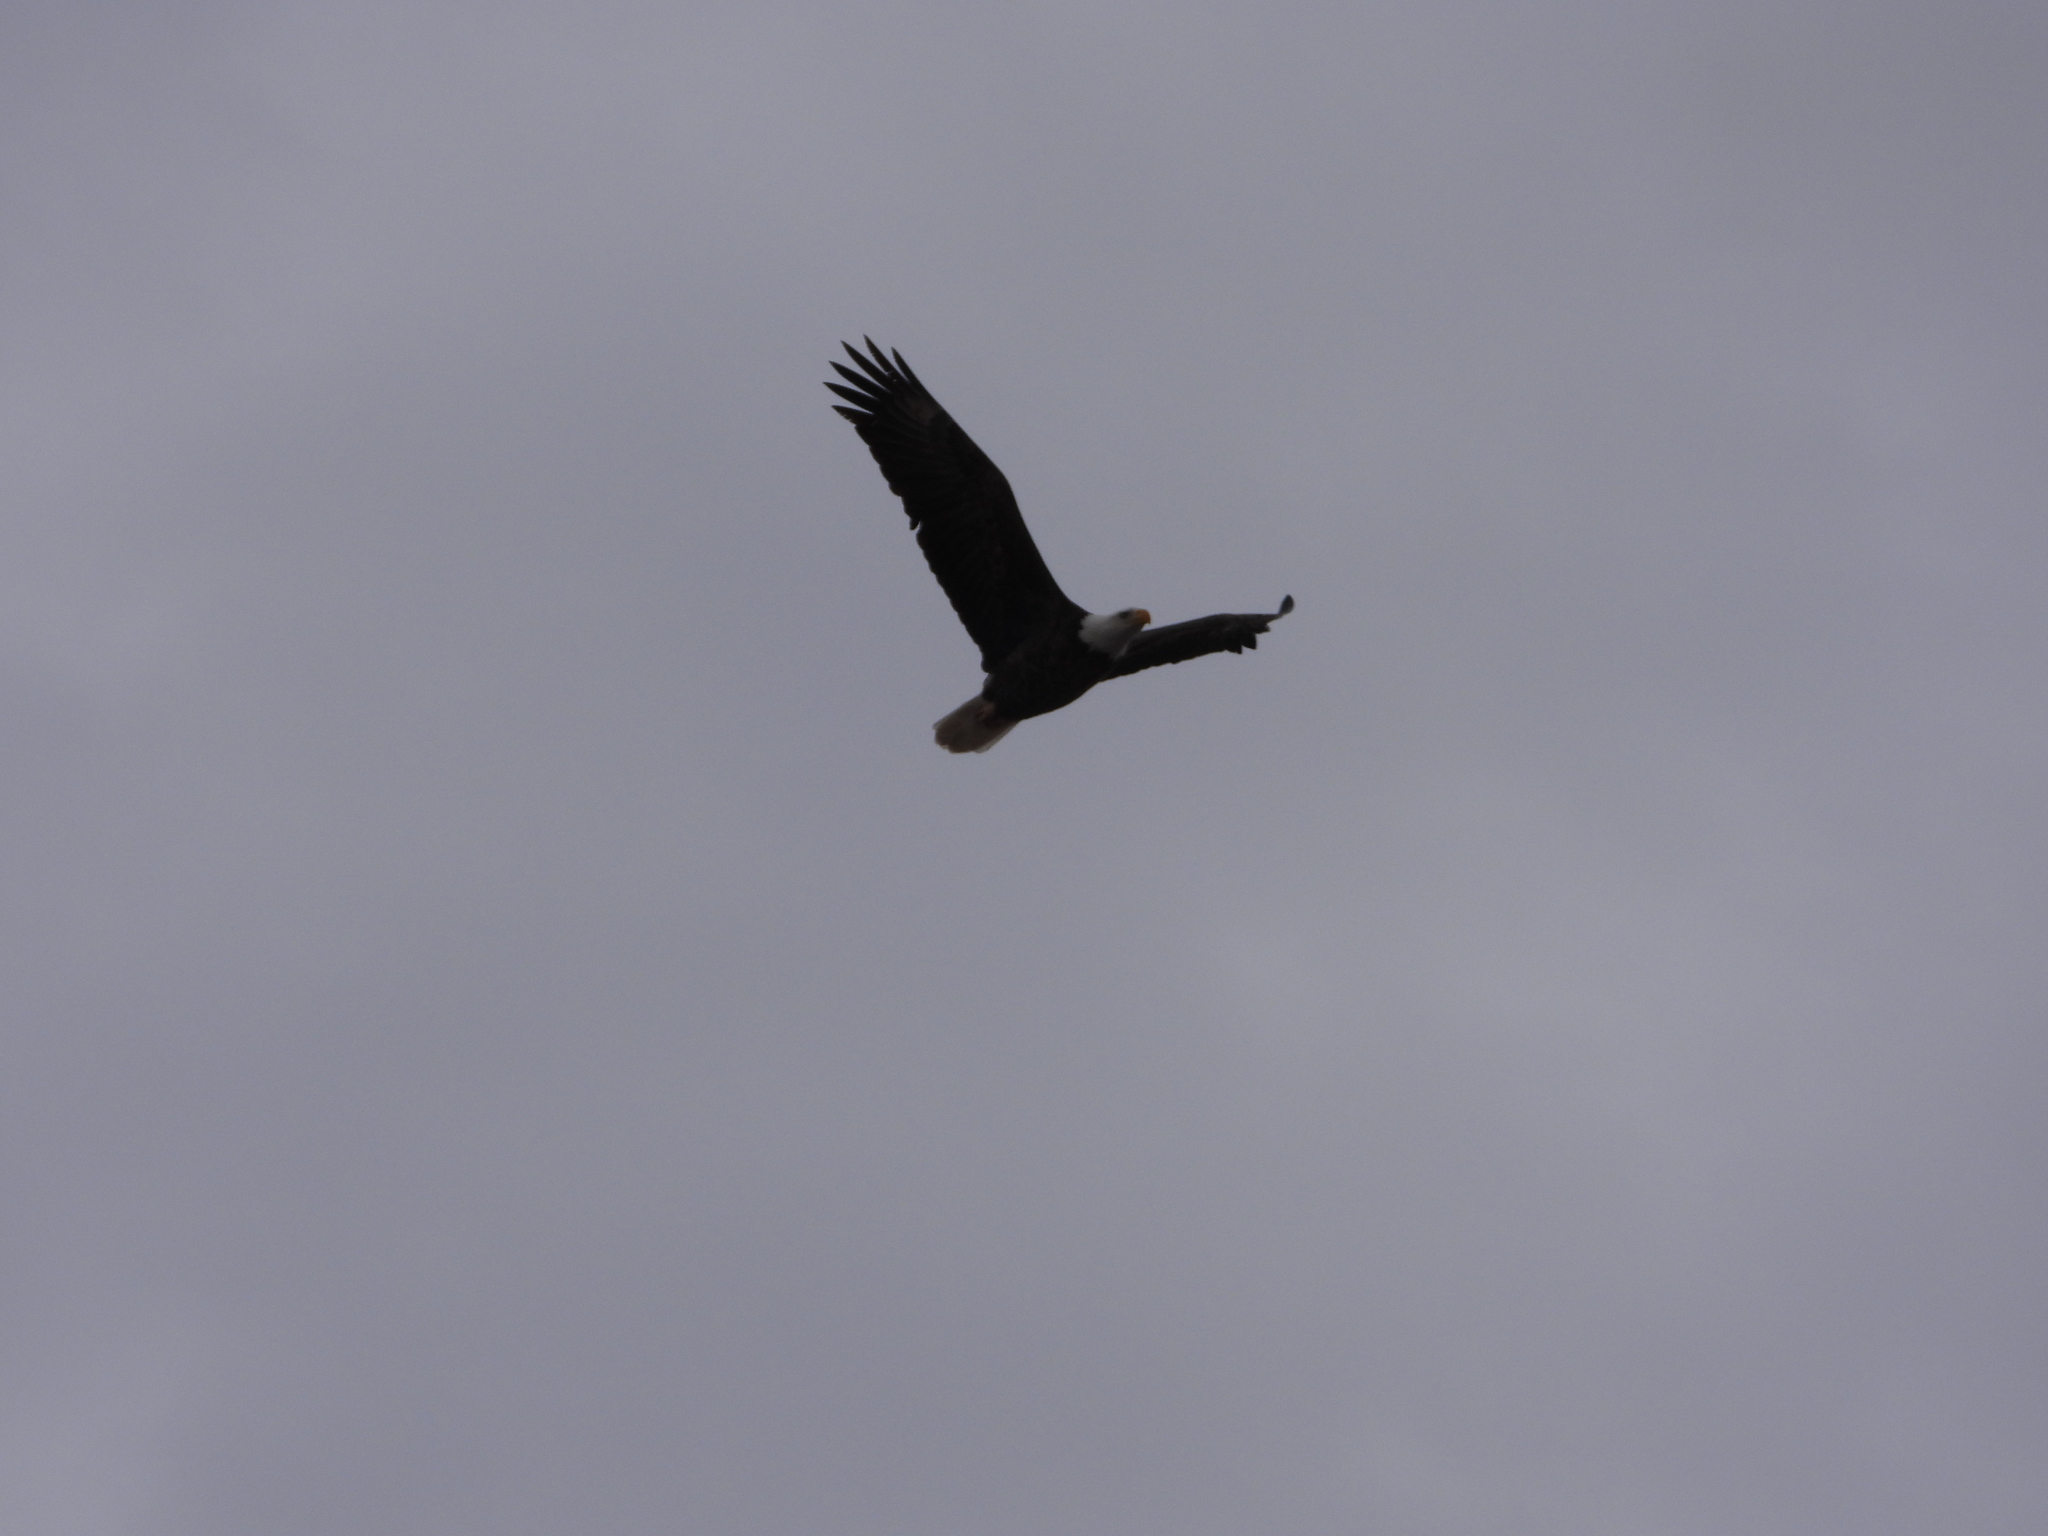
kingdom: Animalia
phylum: Chordata
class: Aves
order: Accipitriformes
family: Accipitridae
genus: Haliaeetus
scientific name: Haliaeetus leucocephalus
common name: Bald eagle
